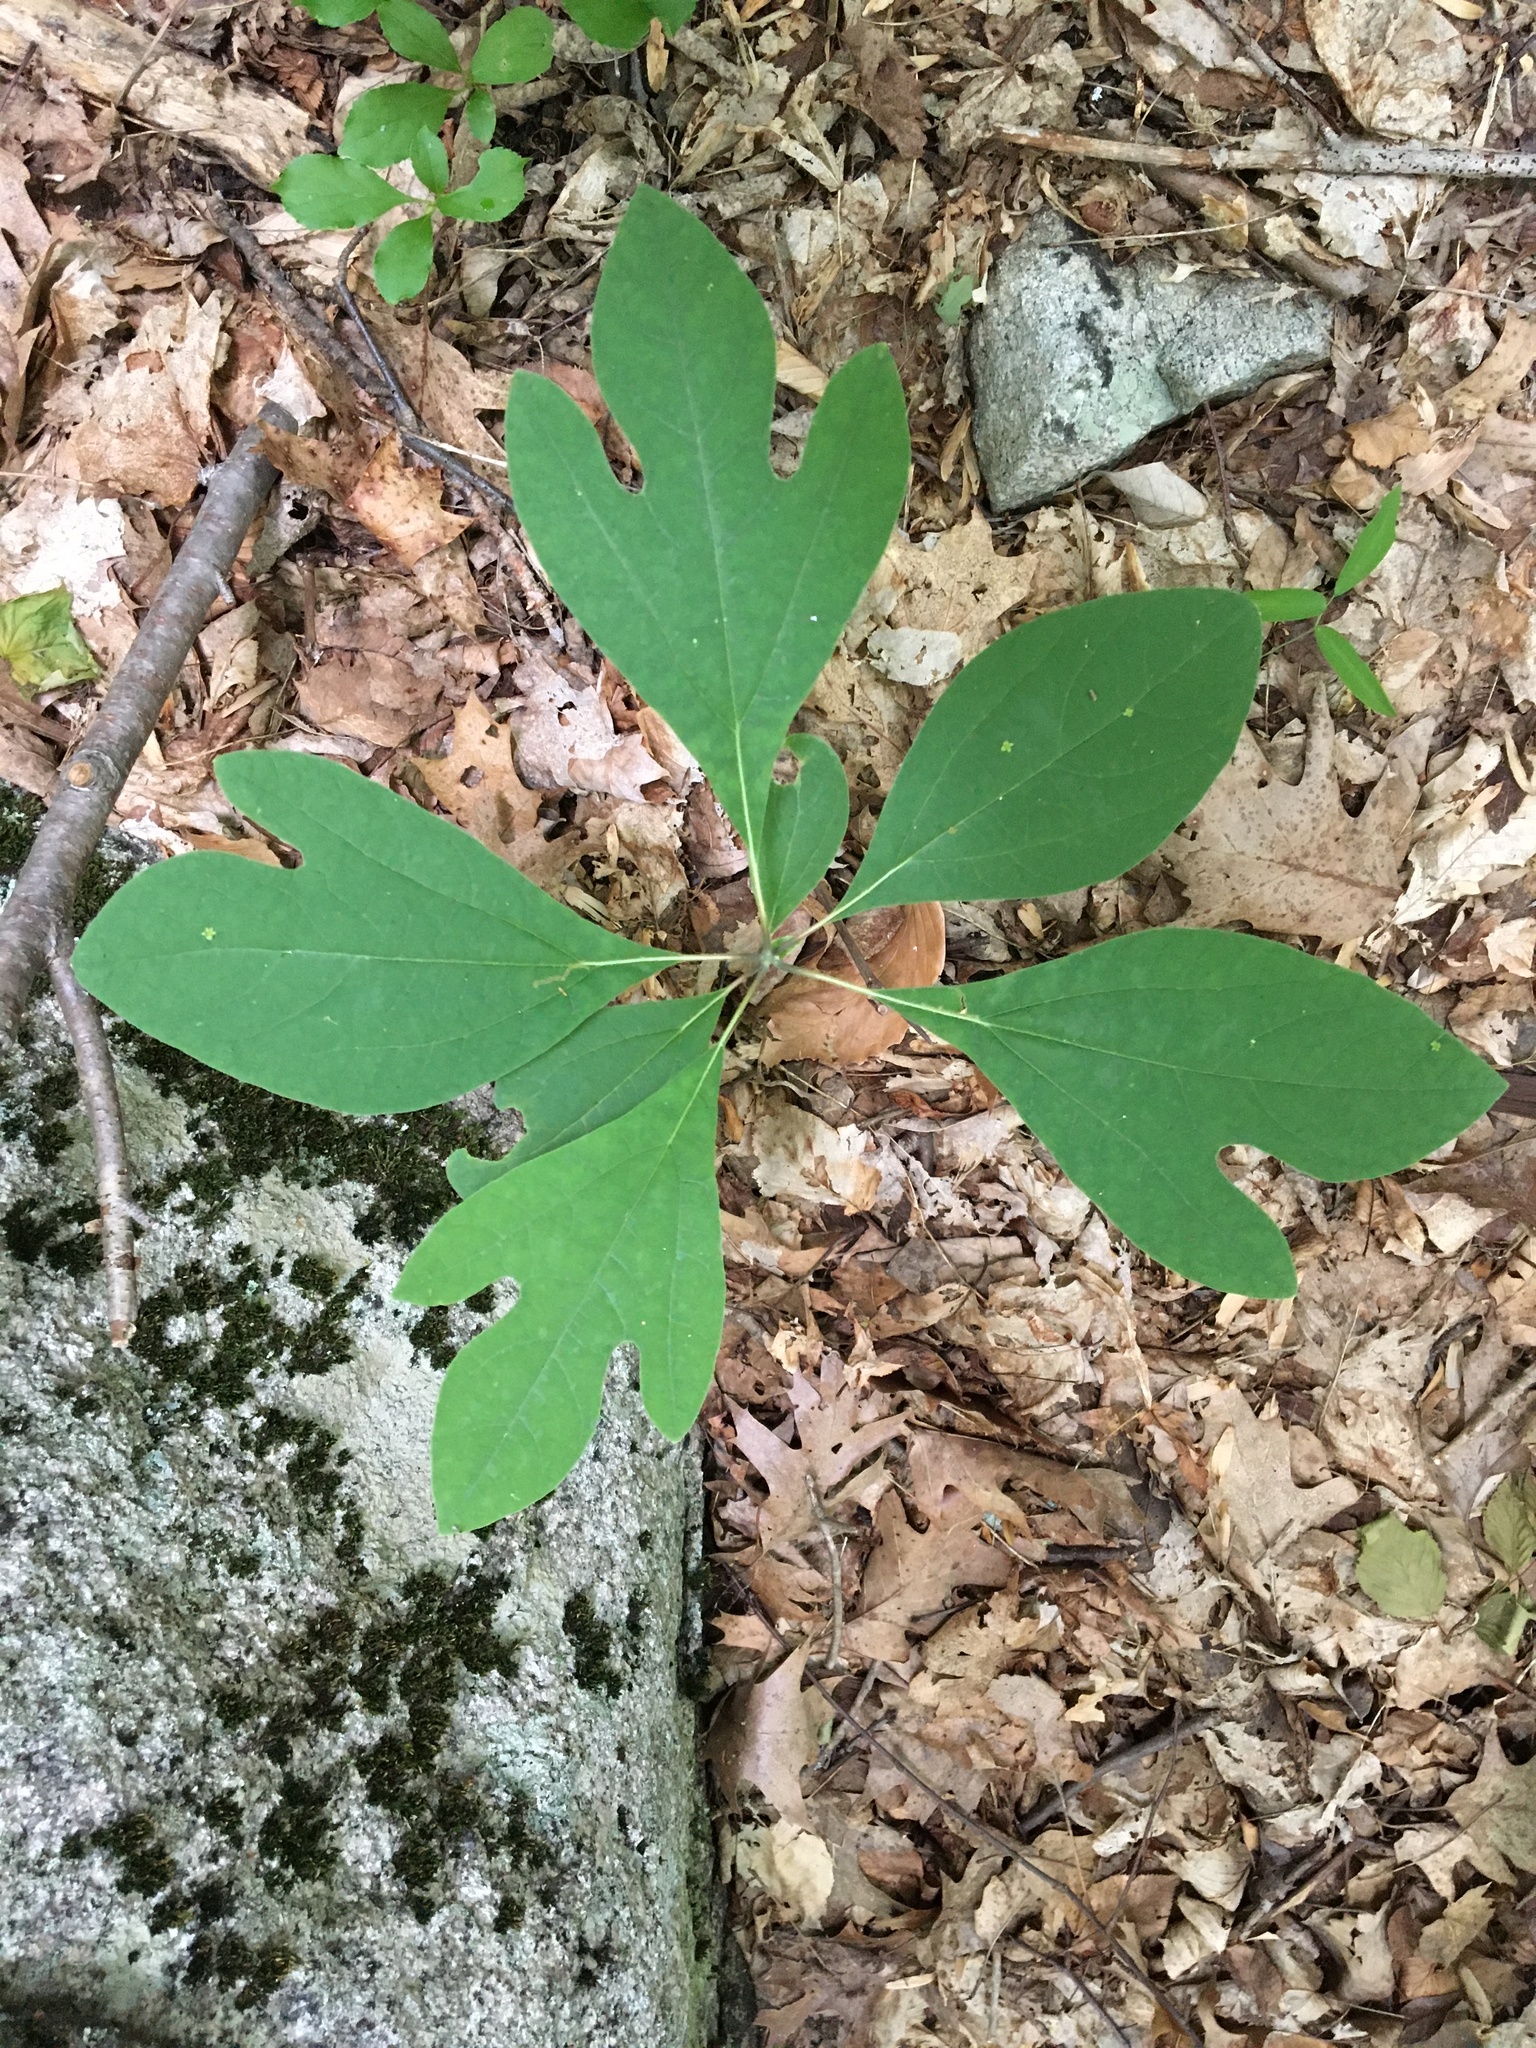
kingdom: Plantae
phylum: Tracheophyta
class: Magnoliopsida
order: Laurales
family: Lauraceae
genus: Sassafras
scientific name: Sassafras albidum
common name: Sassafras
